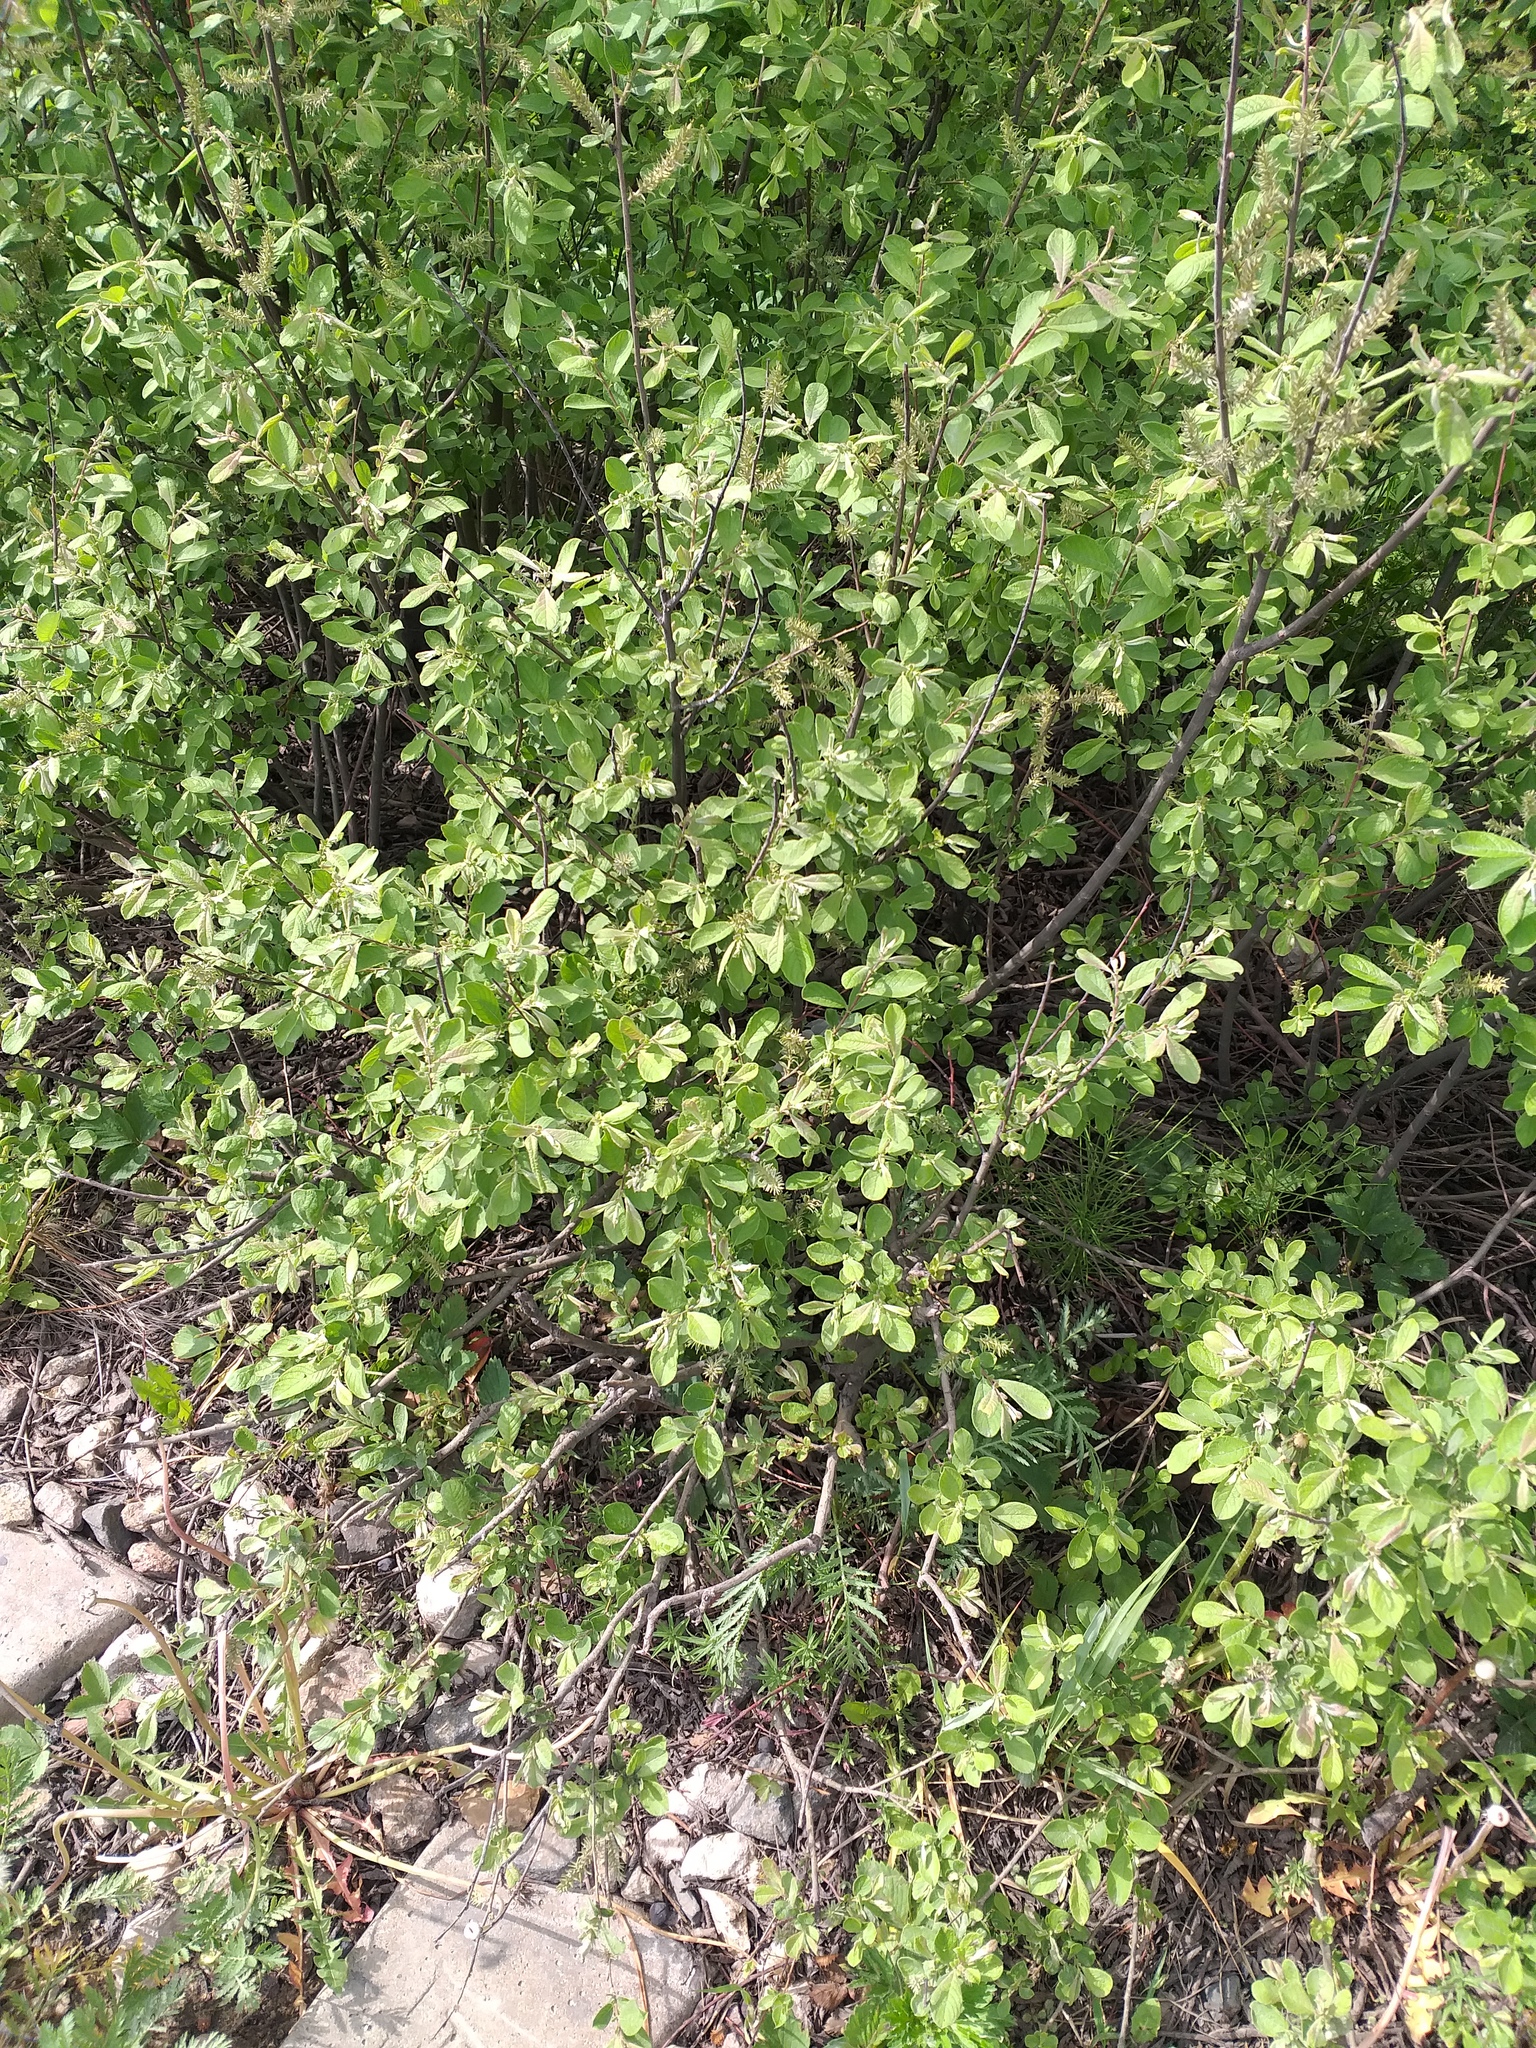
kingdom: Plantae
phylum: Tracheophyta
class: Magnoliopsida
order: Malpighiales
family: Salicaceae
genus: Salix
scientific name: Salix aurita
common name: Eared willow
